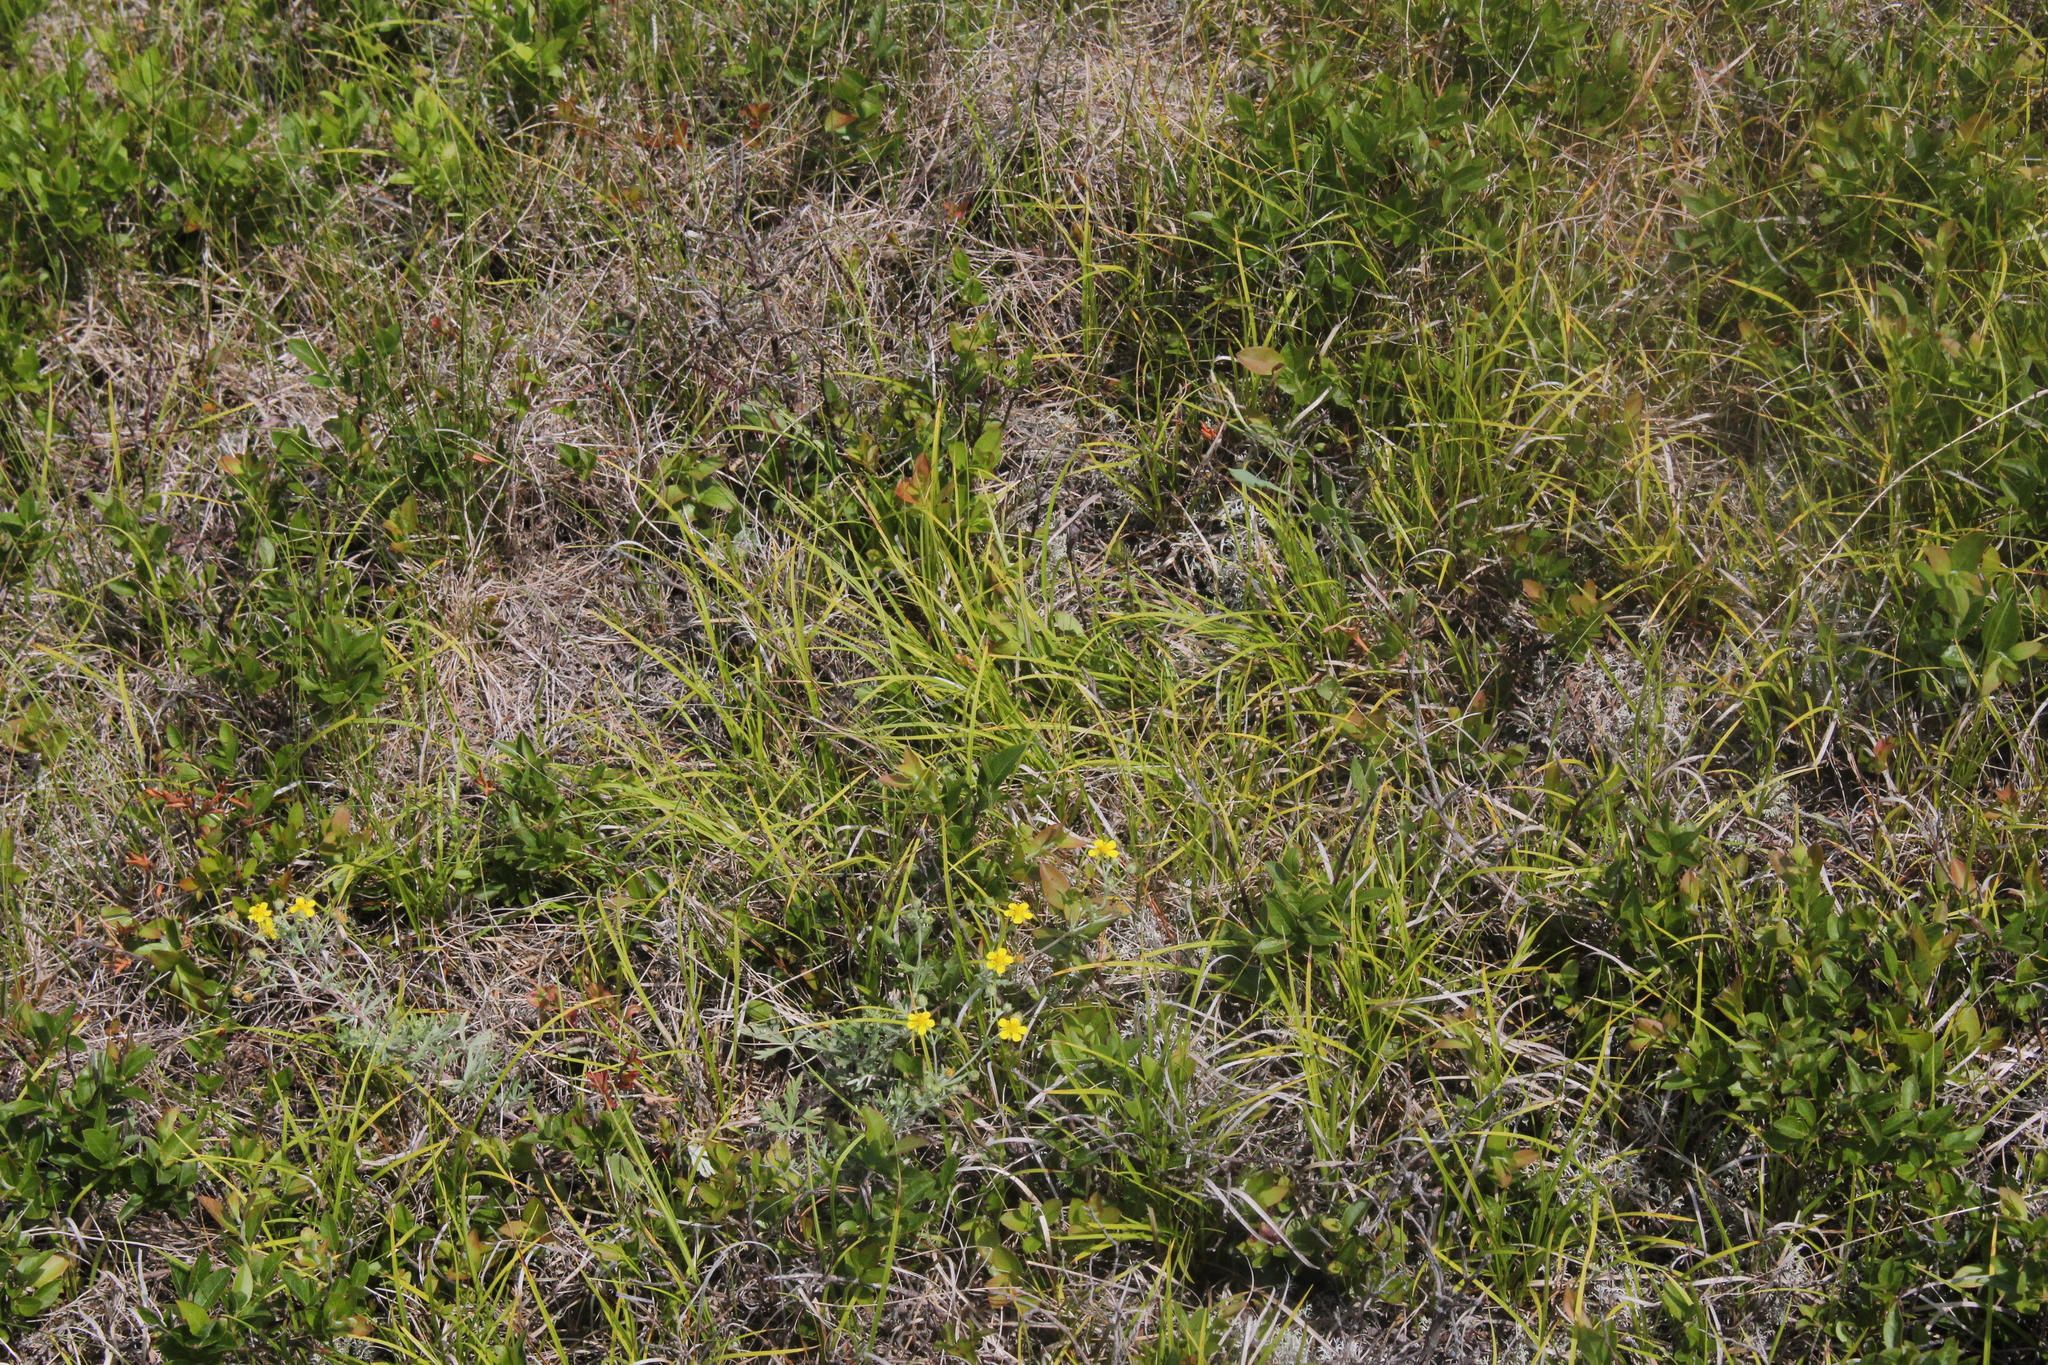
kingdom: Plantae
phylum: Tracheophyta
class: Liliopsida
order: Poales
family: Cyperaceae
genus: Carex
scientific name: Carex lucorum
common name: Blue ridge sedge
